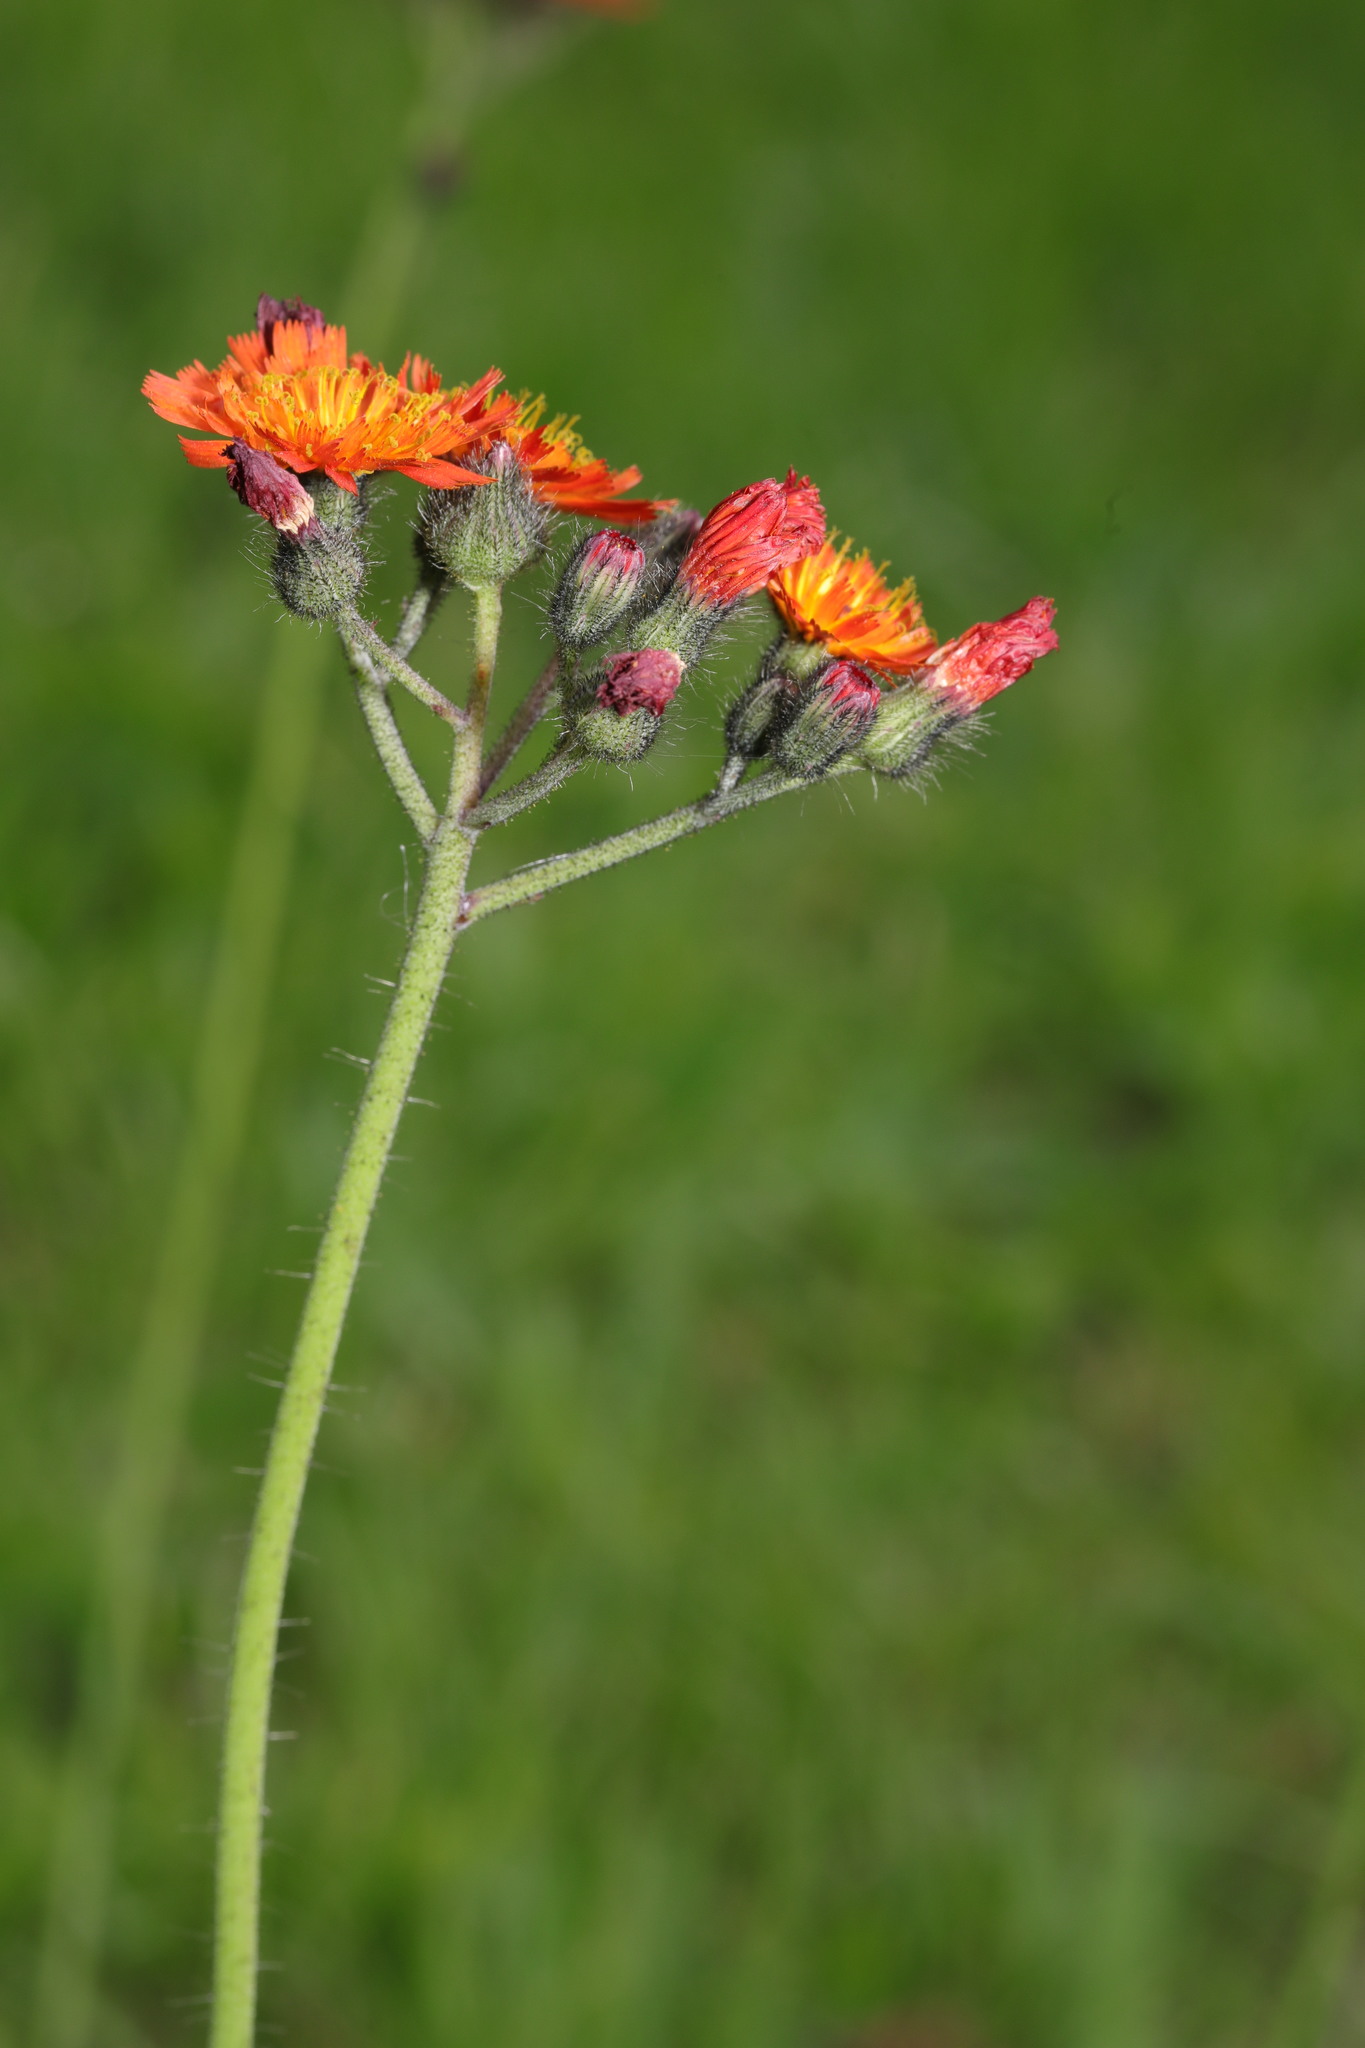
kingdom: Plantae
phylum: Tracheophyta
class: Magnoliopsida
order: Asterales
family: Asteraceae
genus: Pilosella
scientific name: Pilosella aurantiaca
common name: Fox-and-cubs
